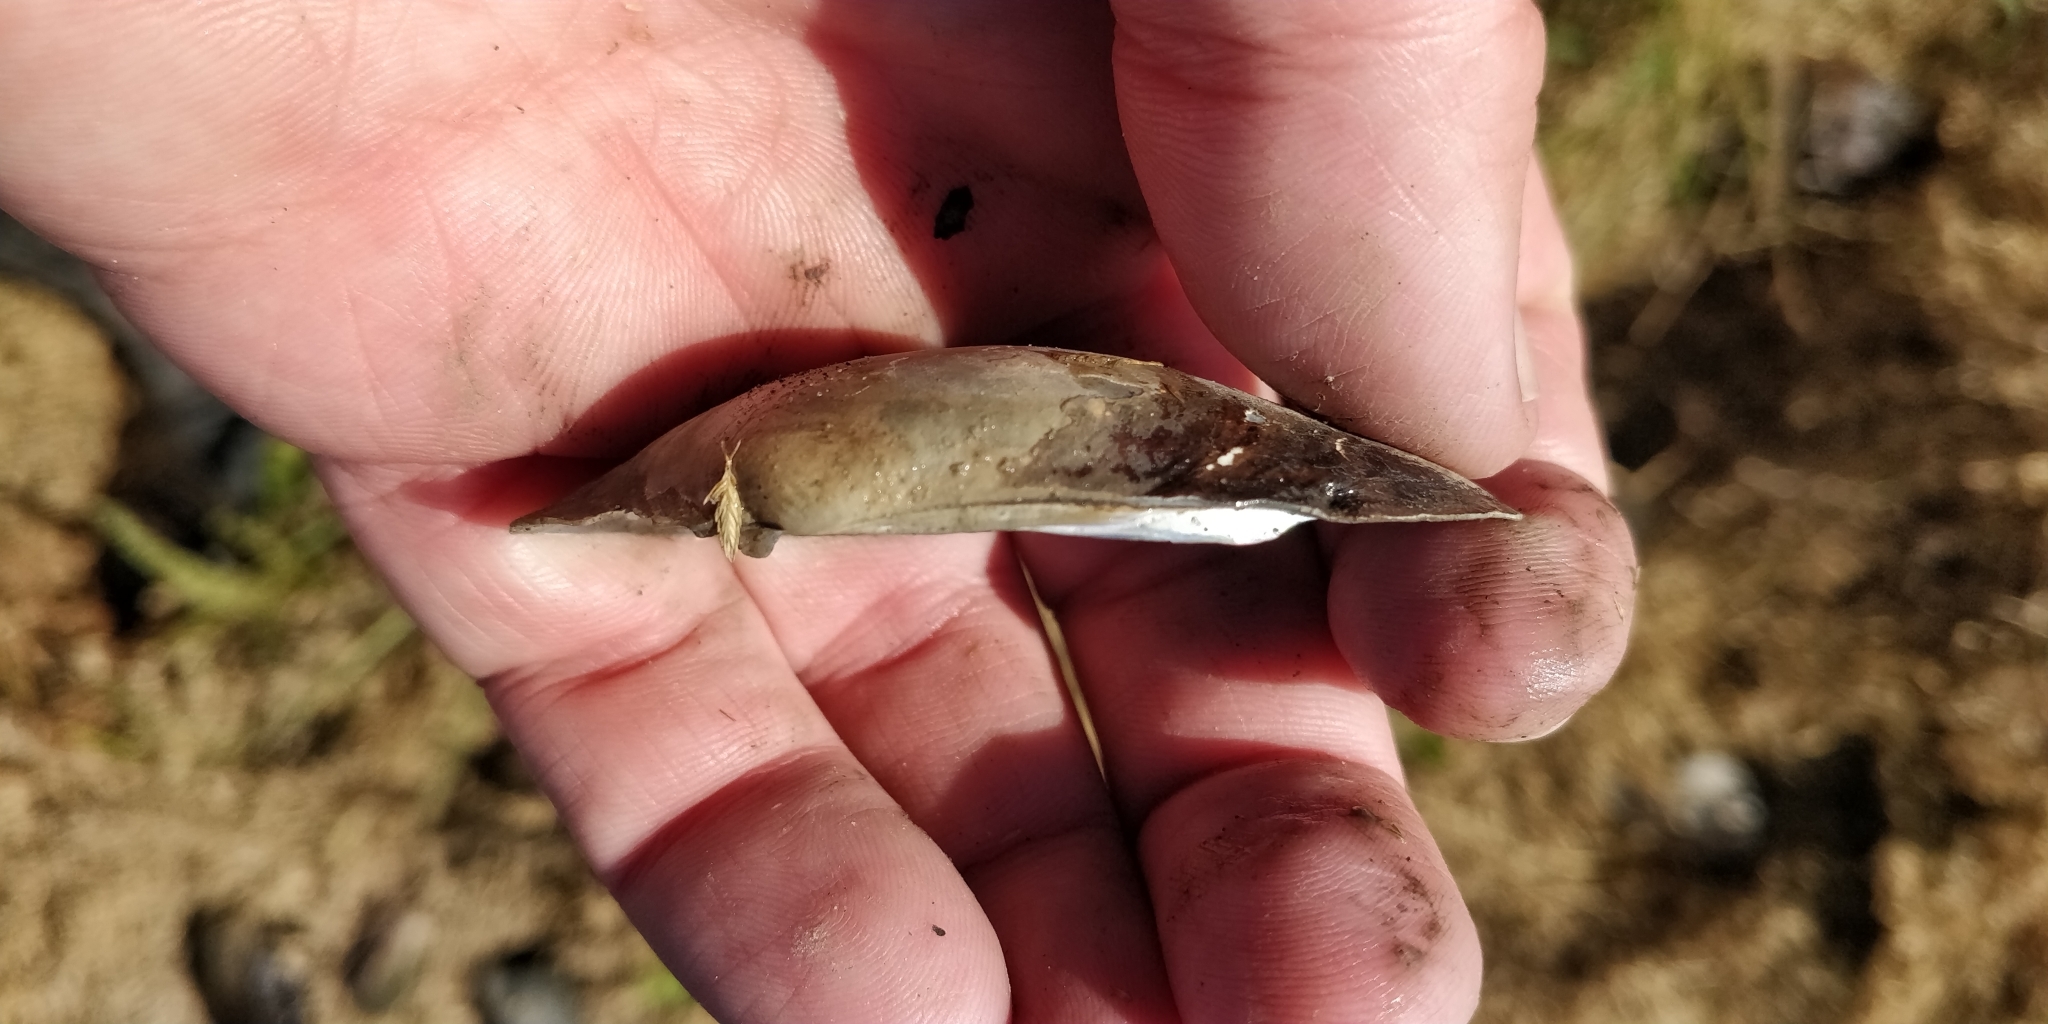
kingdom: Animalia
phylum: Mollusca
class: Bivalvia
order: Unionida
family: Unionidae
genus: Lampsilis
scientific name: Lampsilis siliquoidea
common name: Fatmucket
